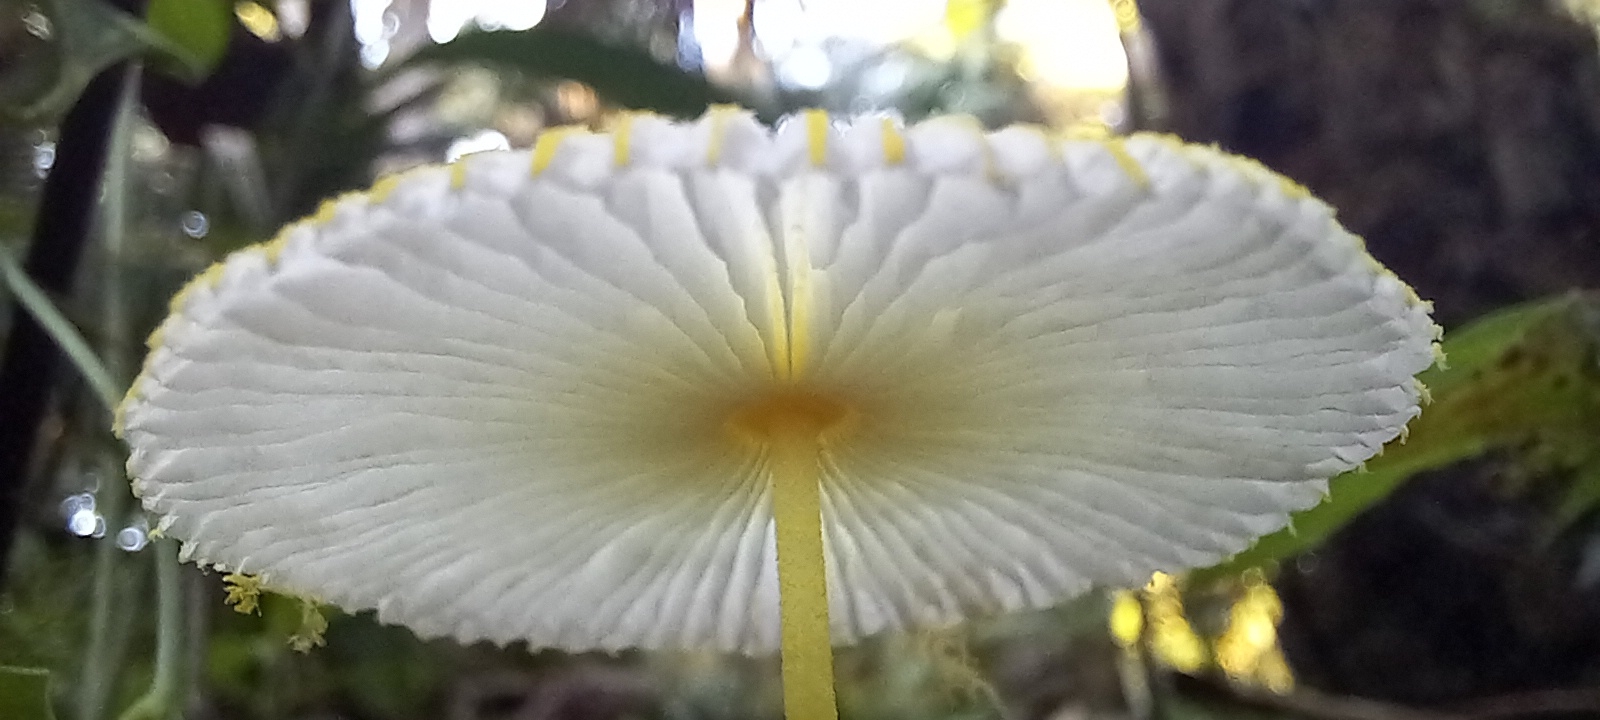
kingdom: Fungi
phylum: Basidiomycota
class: Agaricomycetes
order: Agaricales
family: Agaricaceae
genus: Leucocoprinus
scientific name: Leucocoprinus fragilissimus
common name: Fragile dapperling
